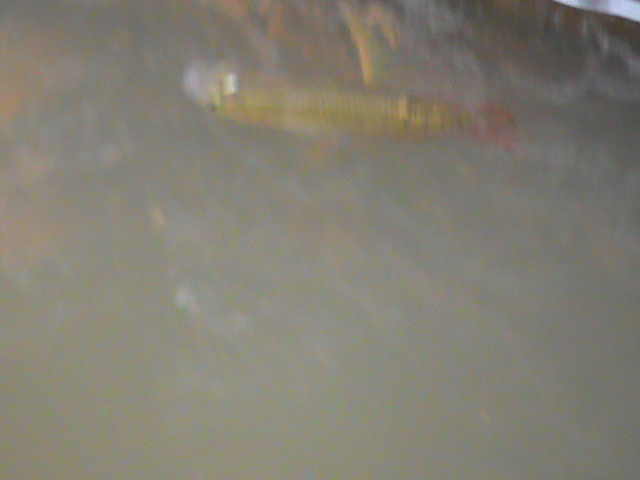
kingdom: Animalia
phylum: Chordata
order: Cyprinodontiformes
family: Aplocheilidae
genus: Aplocheilus
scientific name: Aplocheilus lineatus
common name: Striped panchax
